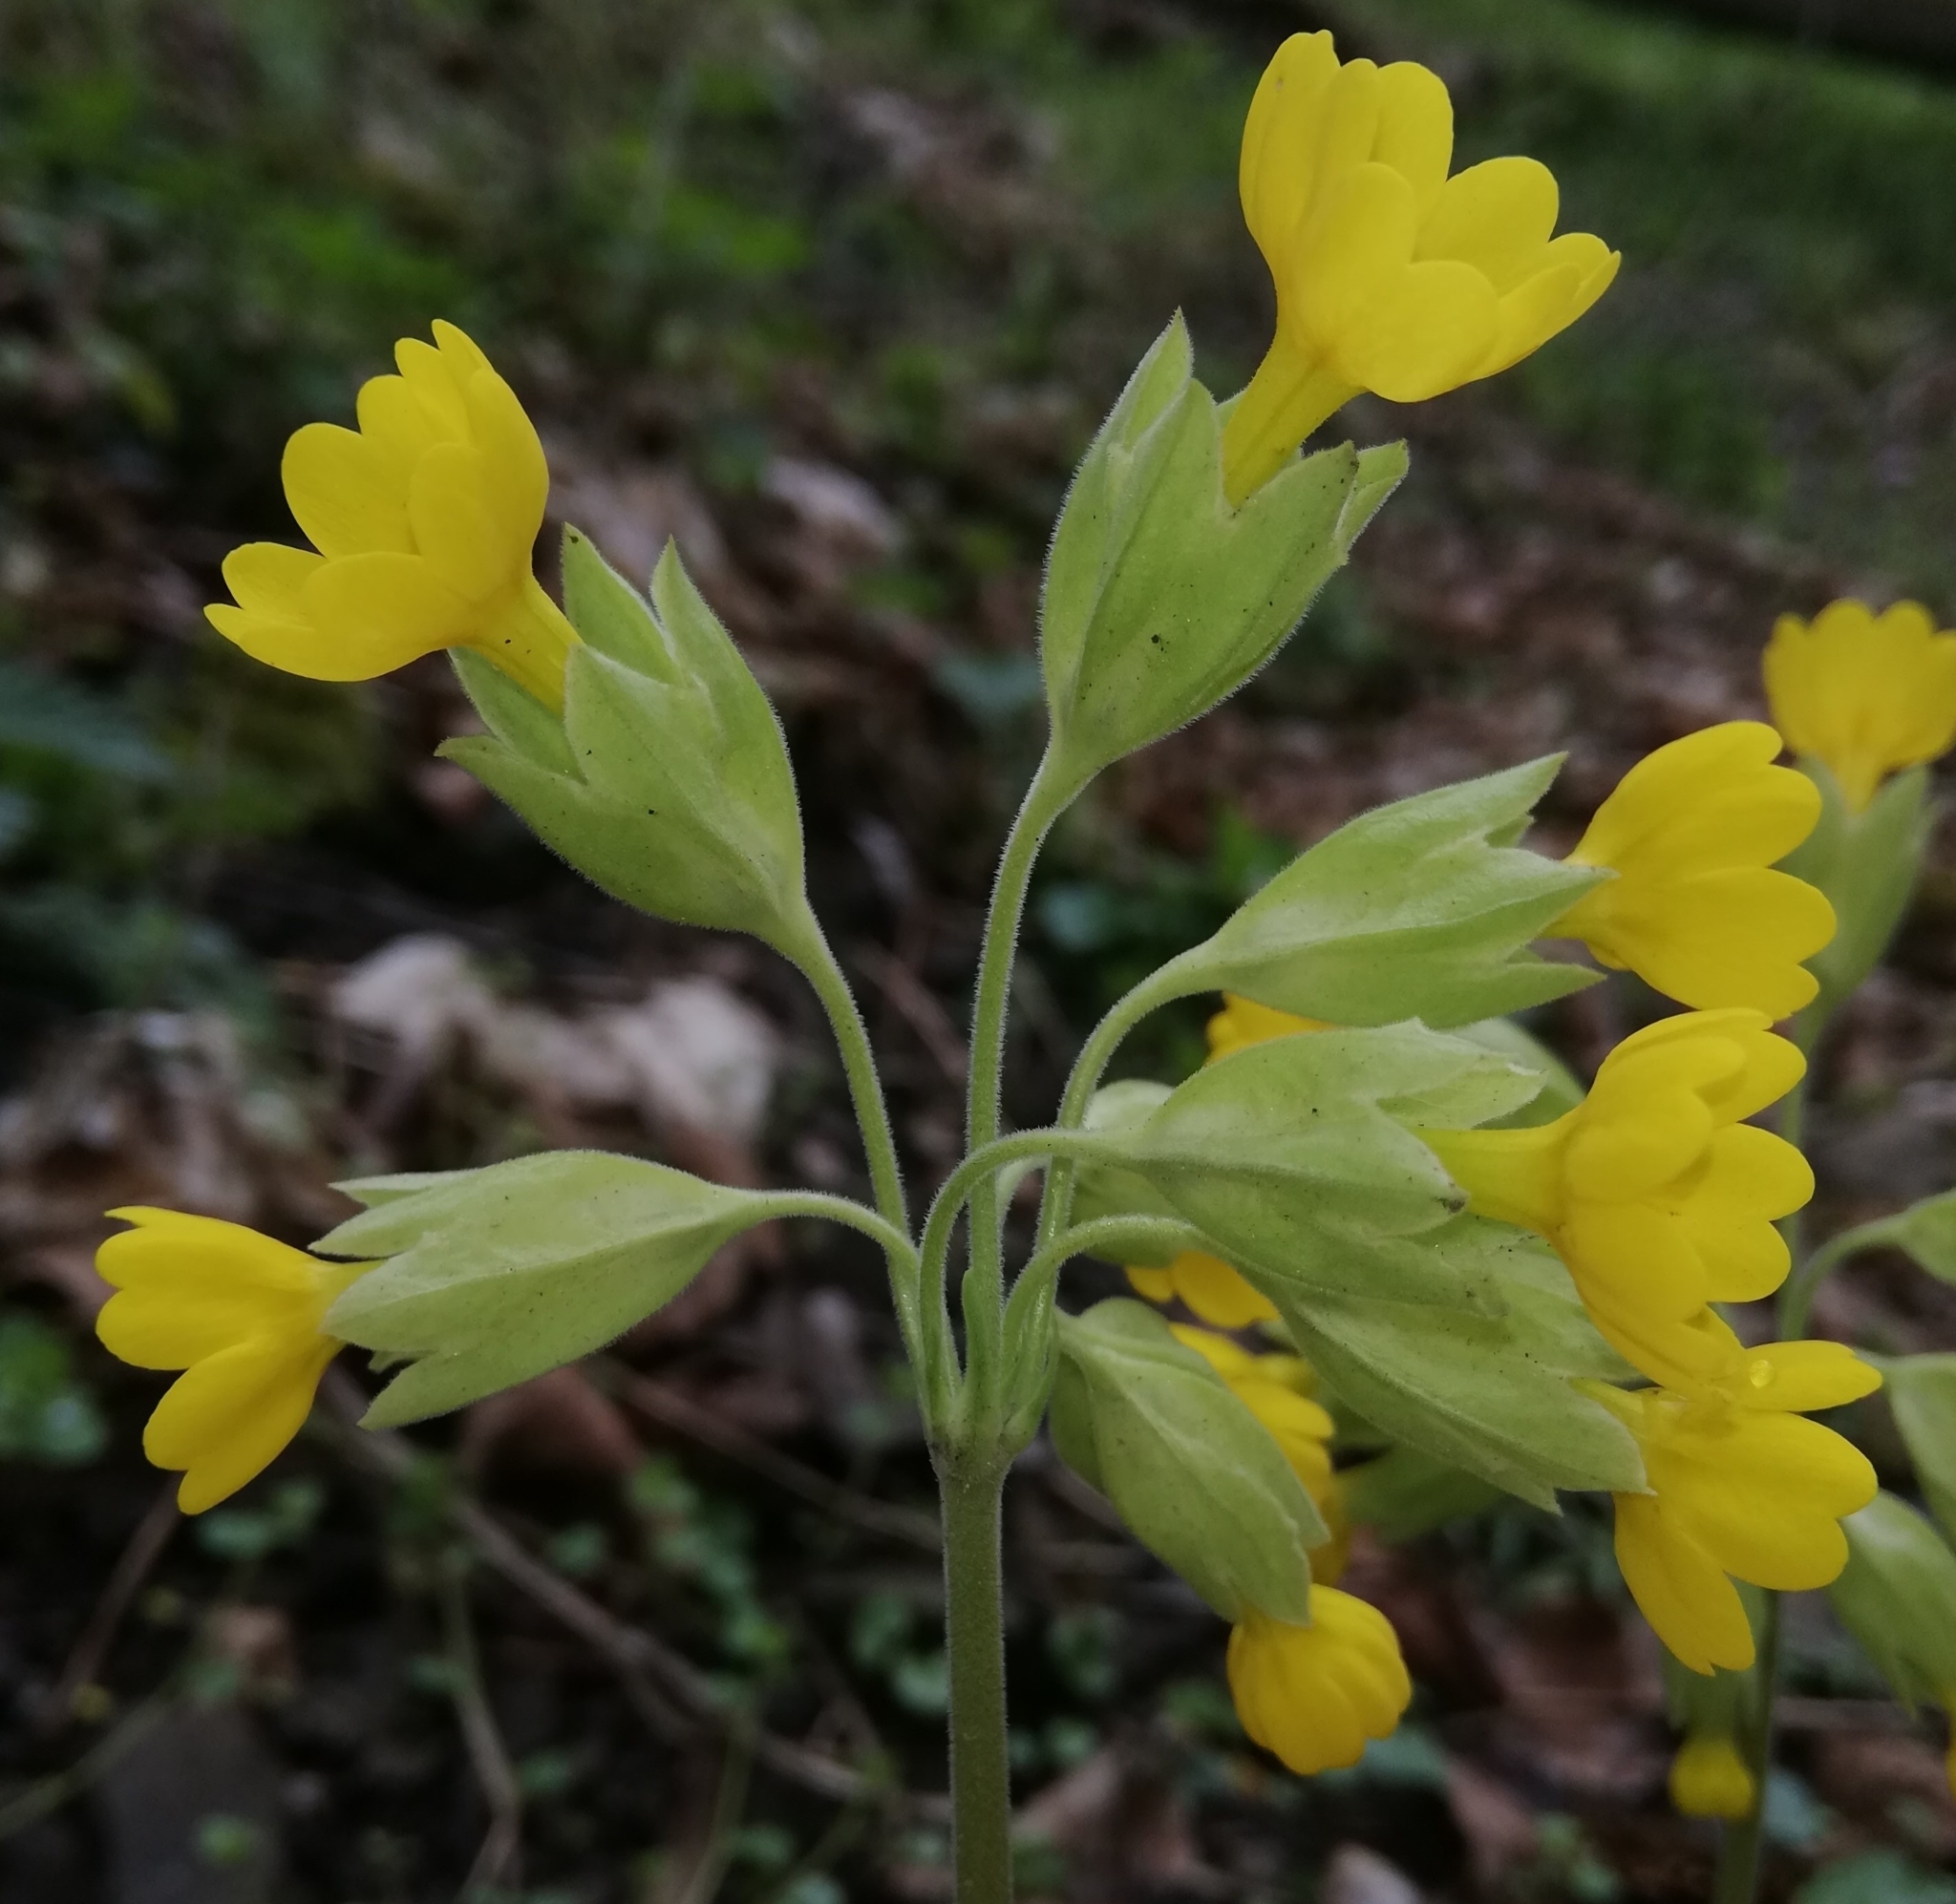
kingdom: Plantae
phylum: Tracheophyta
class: Magnoliopsida
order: Ericales
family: Primulaceae
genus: Primula
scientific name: Primula veris
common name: Cowslip
